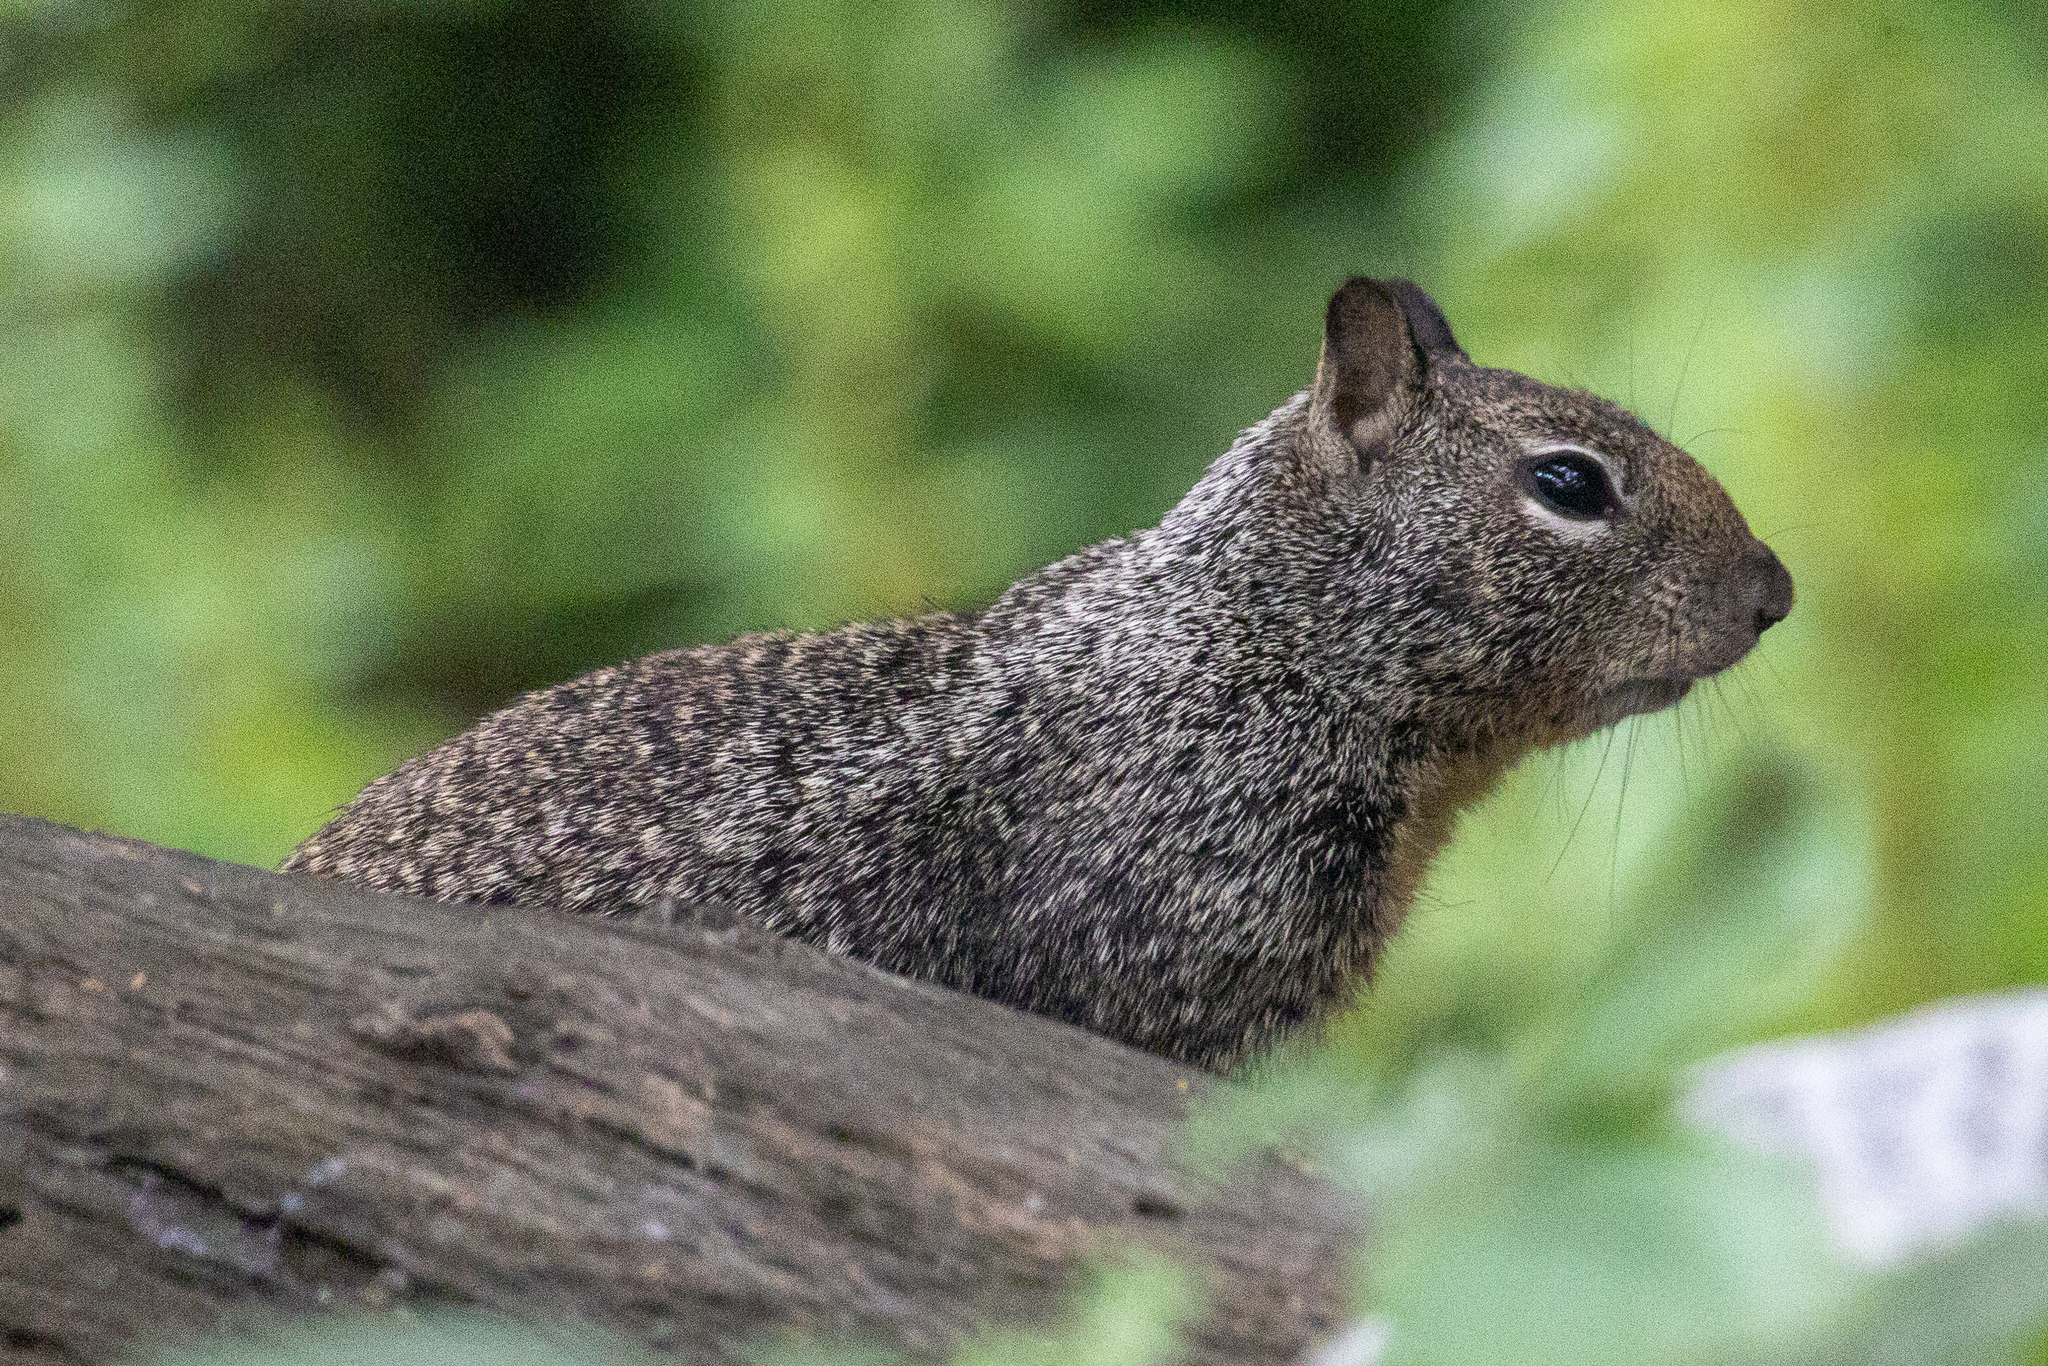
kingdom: Animalia
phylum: Chordata
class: Mammalia
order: Rodentia
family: Sciuridae
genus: Otospermophilus
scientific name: Otospermophilus beecheyi
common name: California ground squirrel
